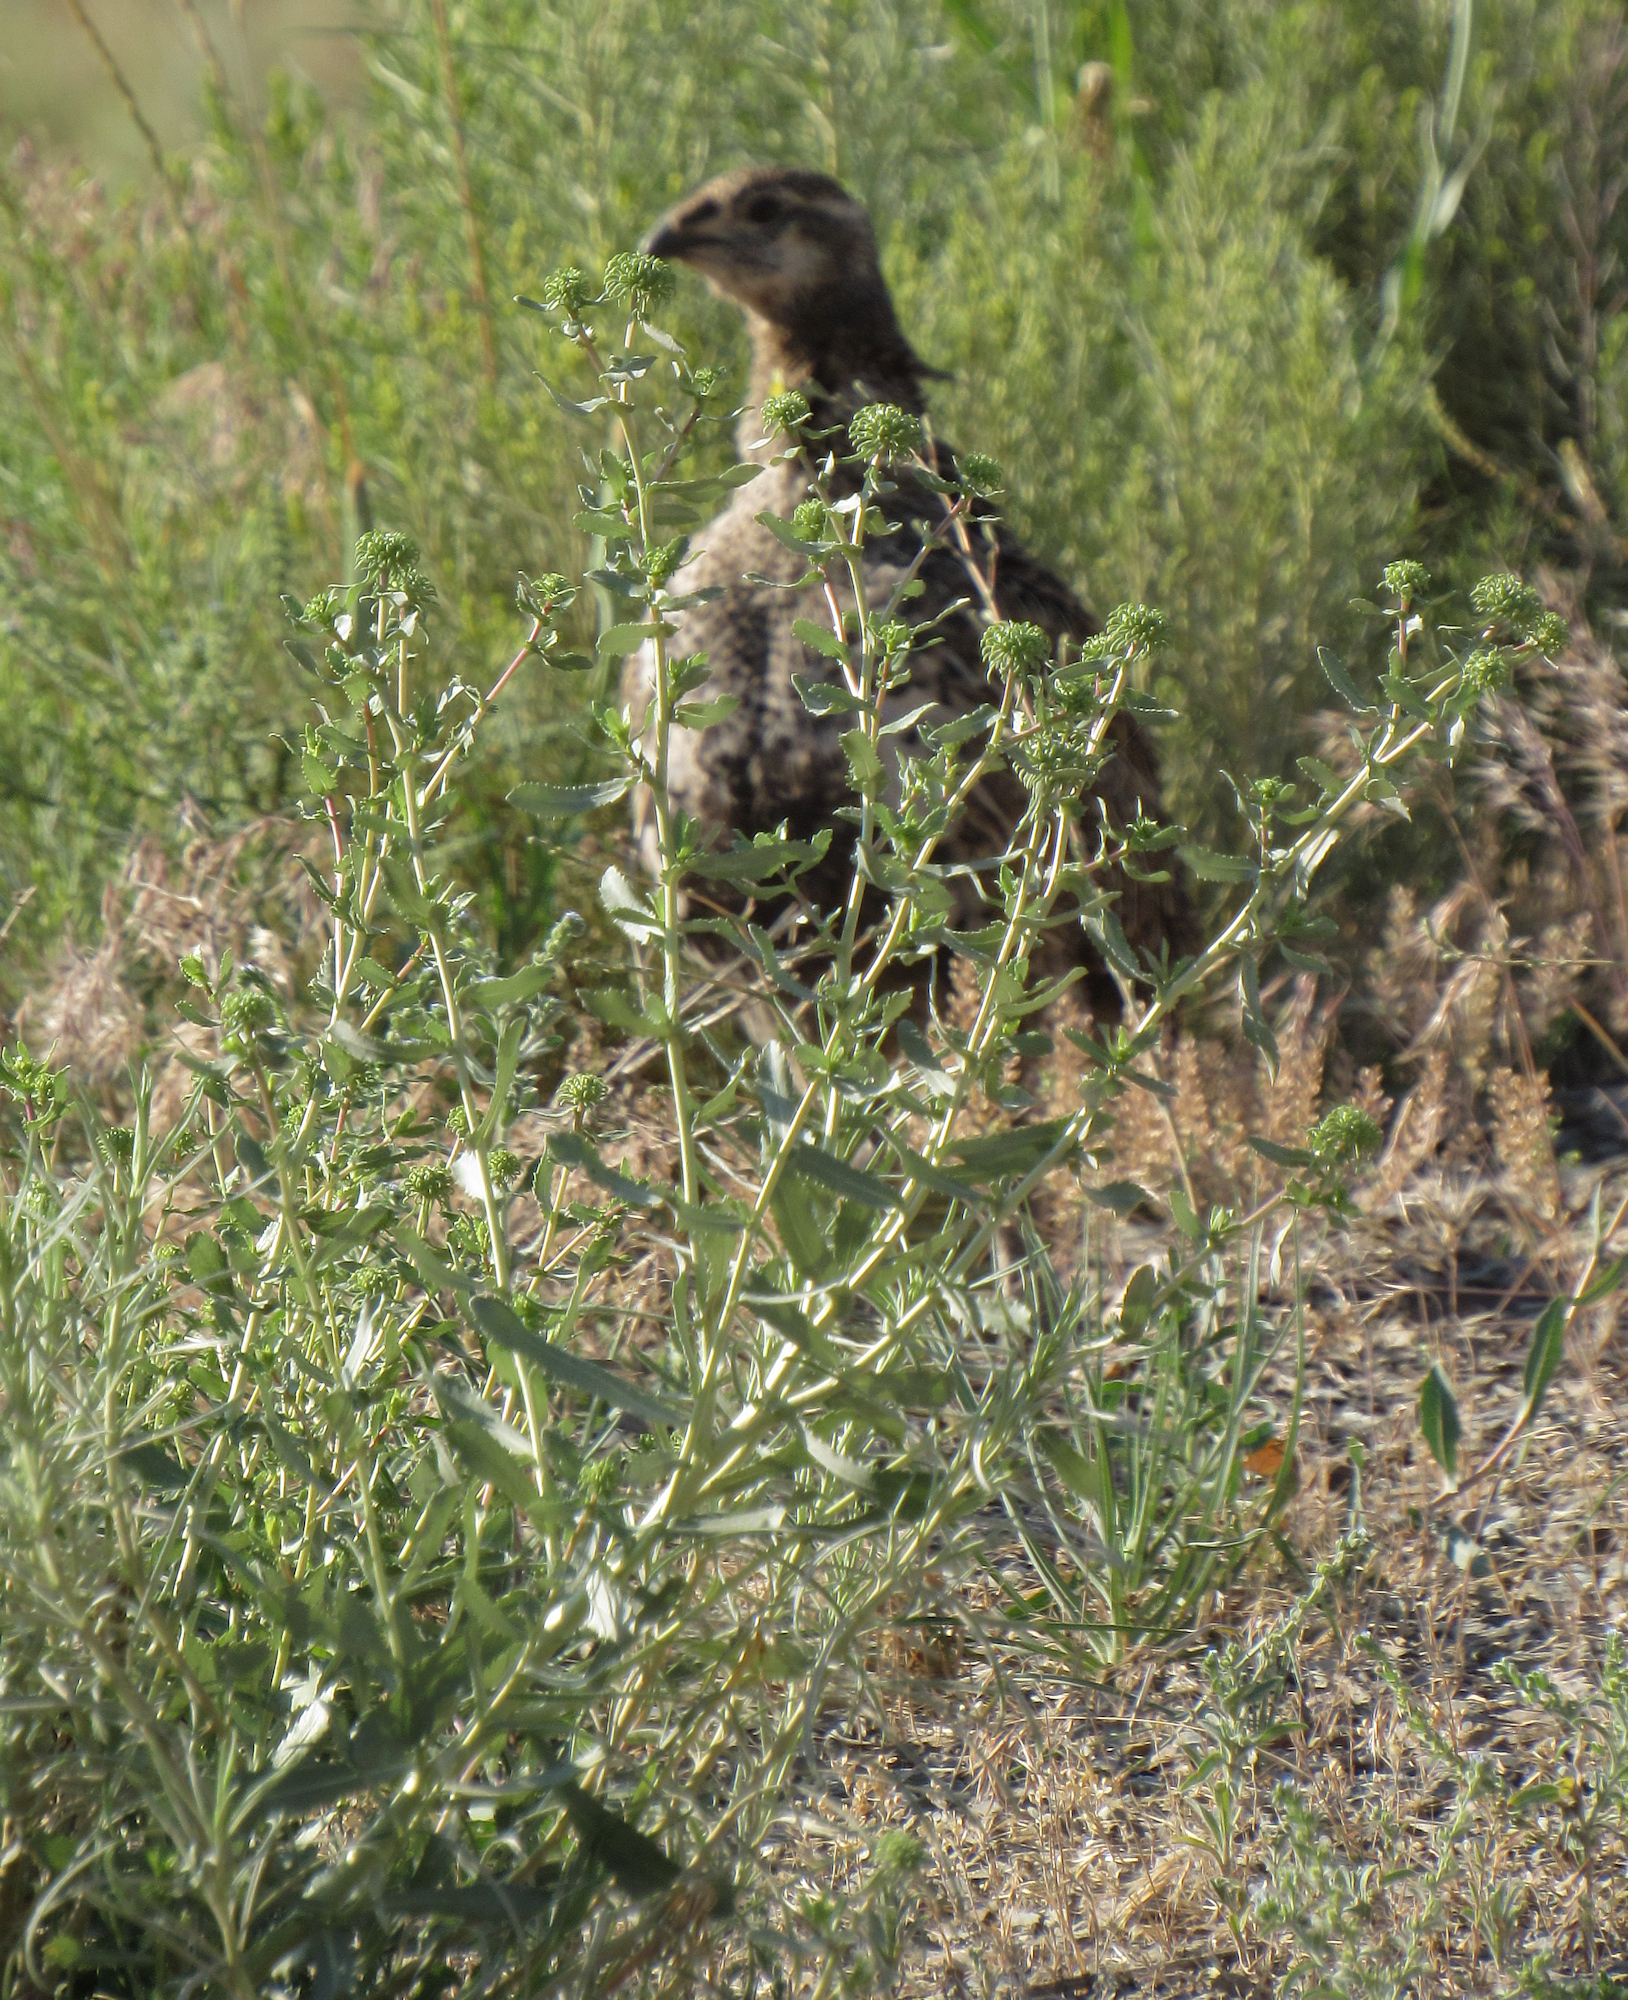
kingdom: Plantae
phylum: Tracheophyta
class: Magnoliopsida
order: Asterales
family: Asteraceae
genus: Grindelia
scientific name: Grindelia squarrosa
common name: Curly-cup gumweed
